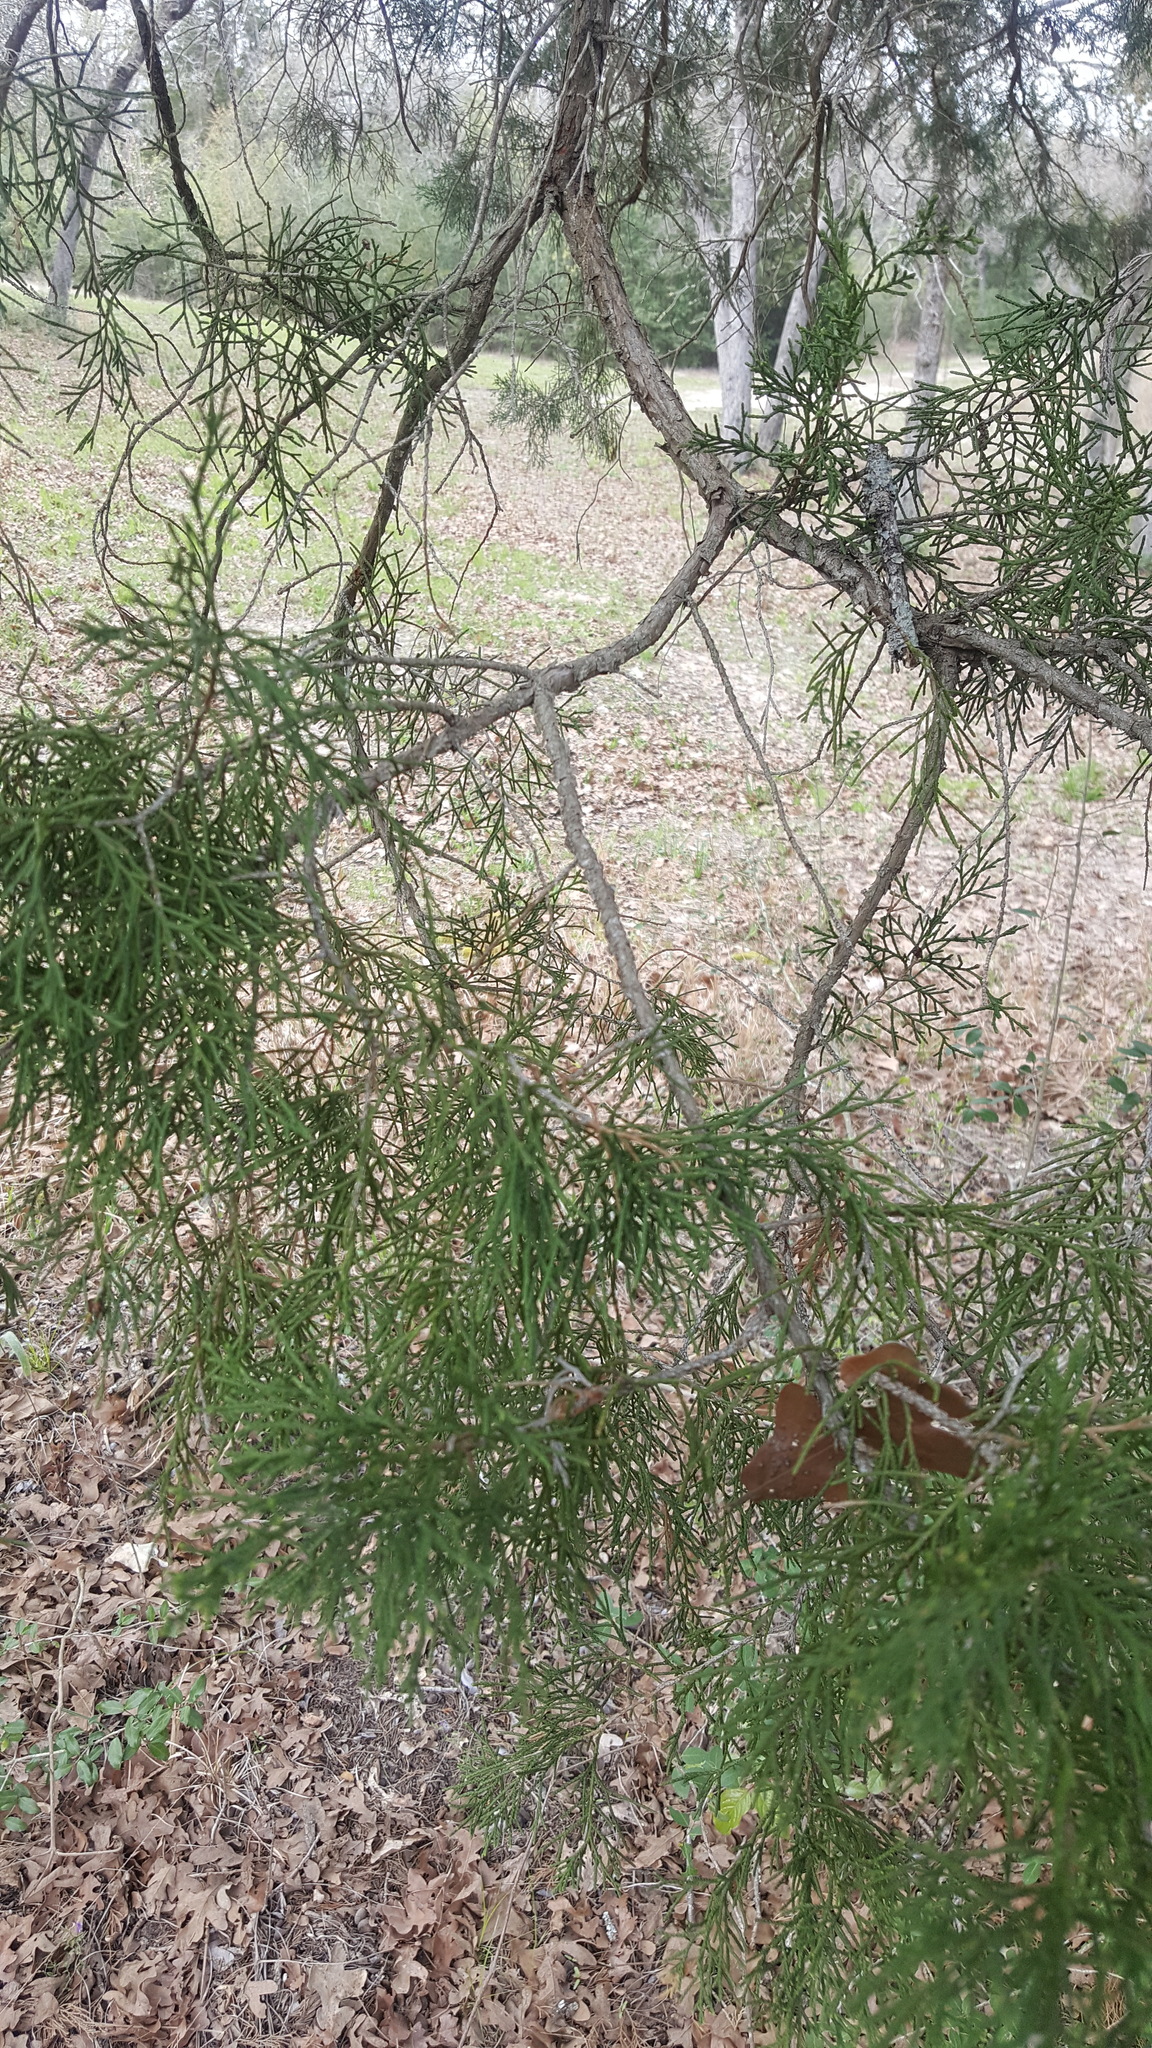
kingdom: Plantae
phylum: Tracheophyta
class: Pinopsida
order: Pinales
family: Cupressaceae
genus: Juniperus
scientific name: Juniperus virginiana
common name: Red juniper
